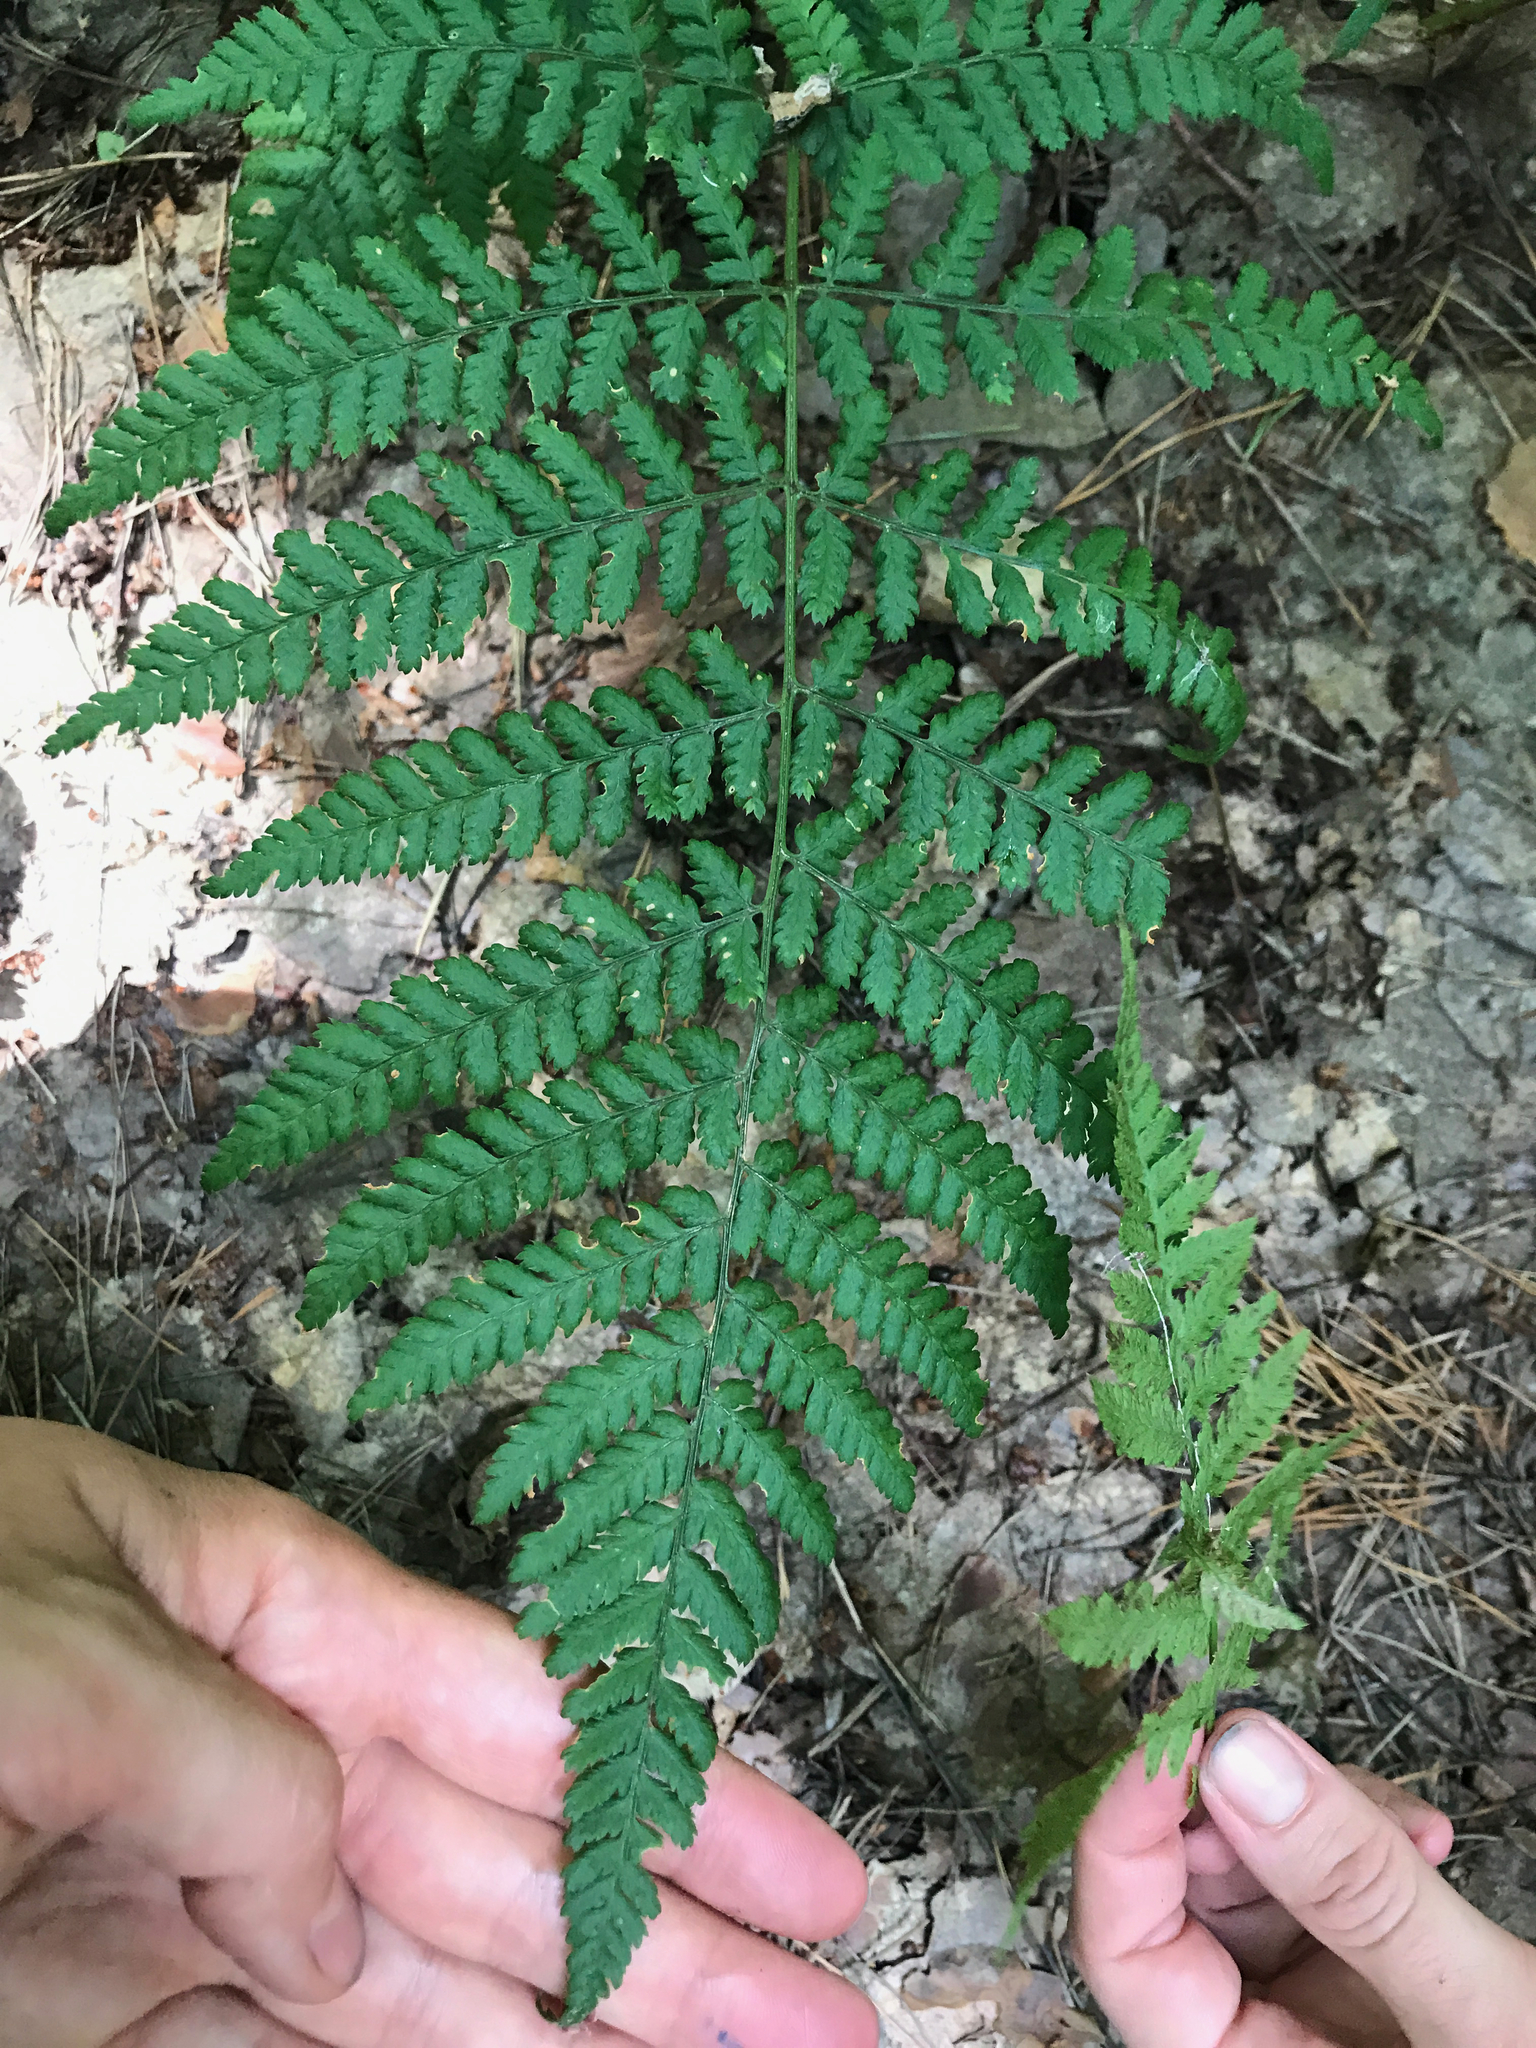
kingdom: Plantae
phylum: Tracheophyta
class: Polypodiopsida
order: Polypodiales
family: Dryopteridaceae
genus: Dryopteris
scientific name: Dryopteris dilatata
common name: Broad buckler-fern
